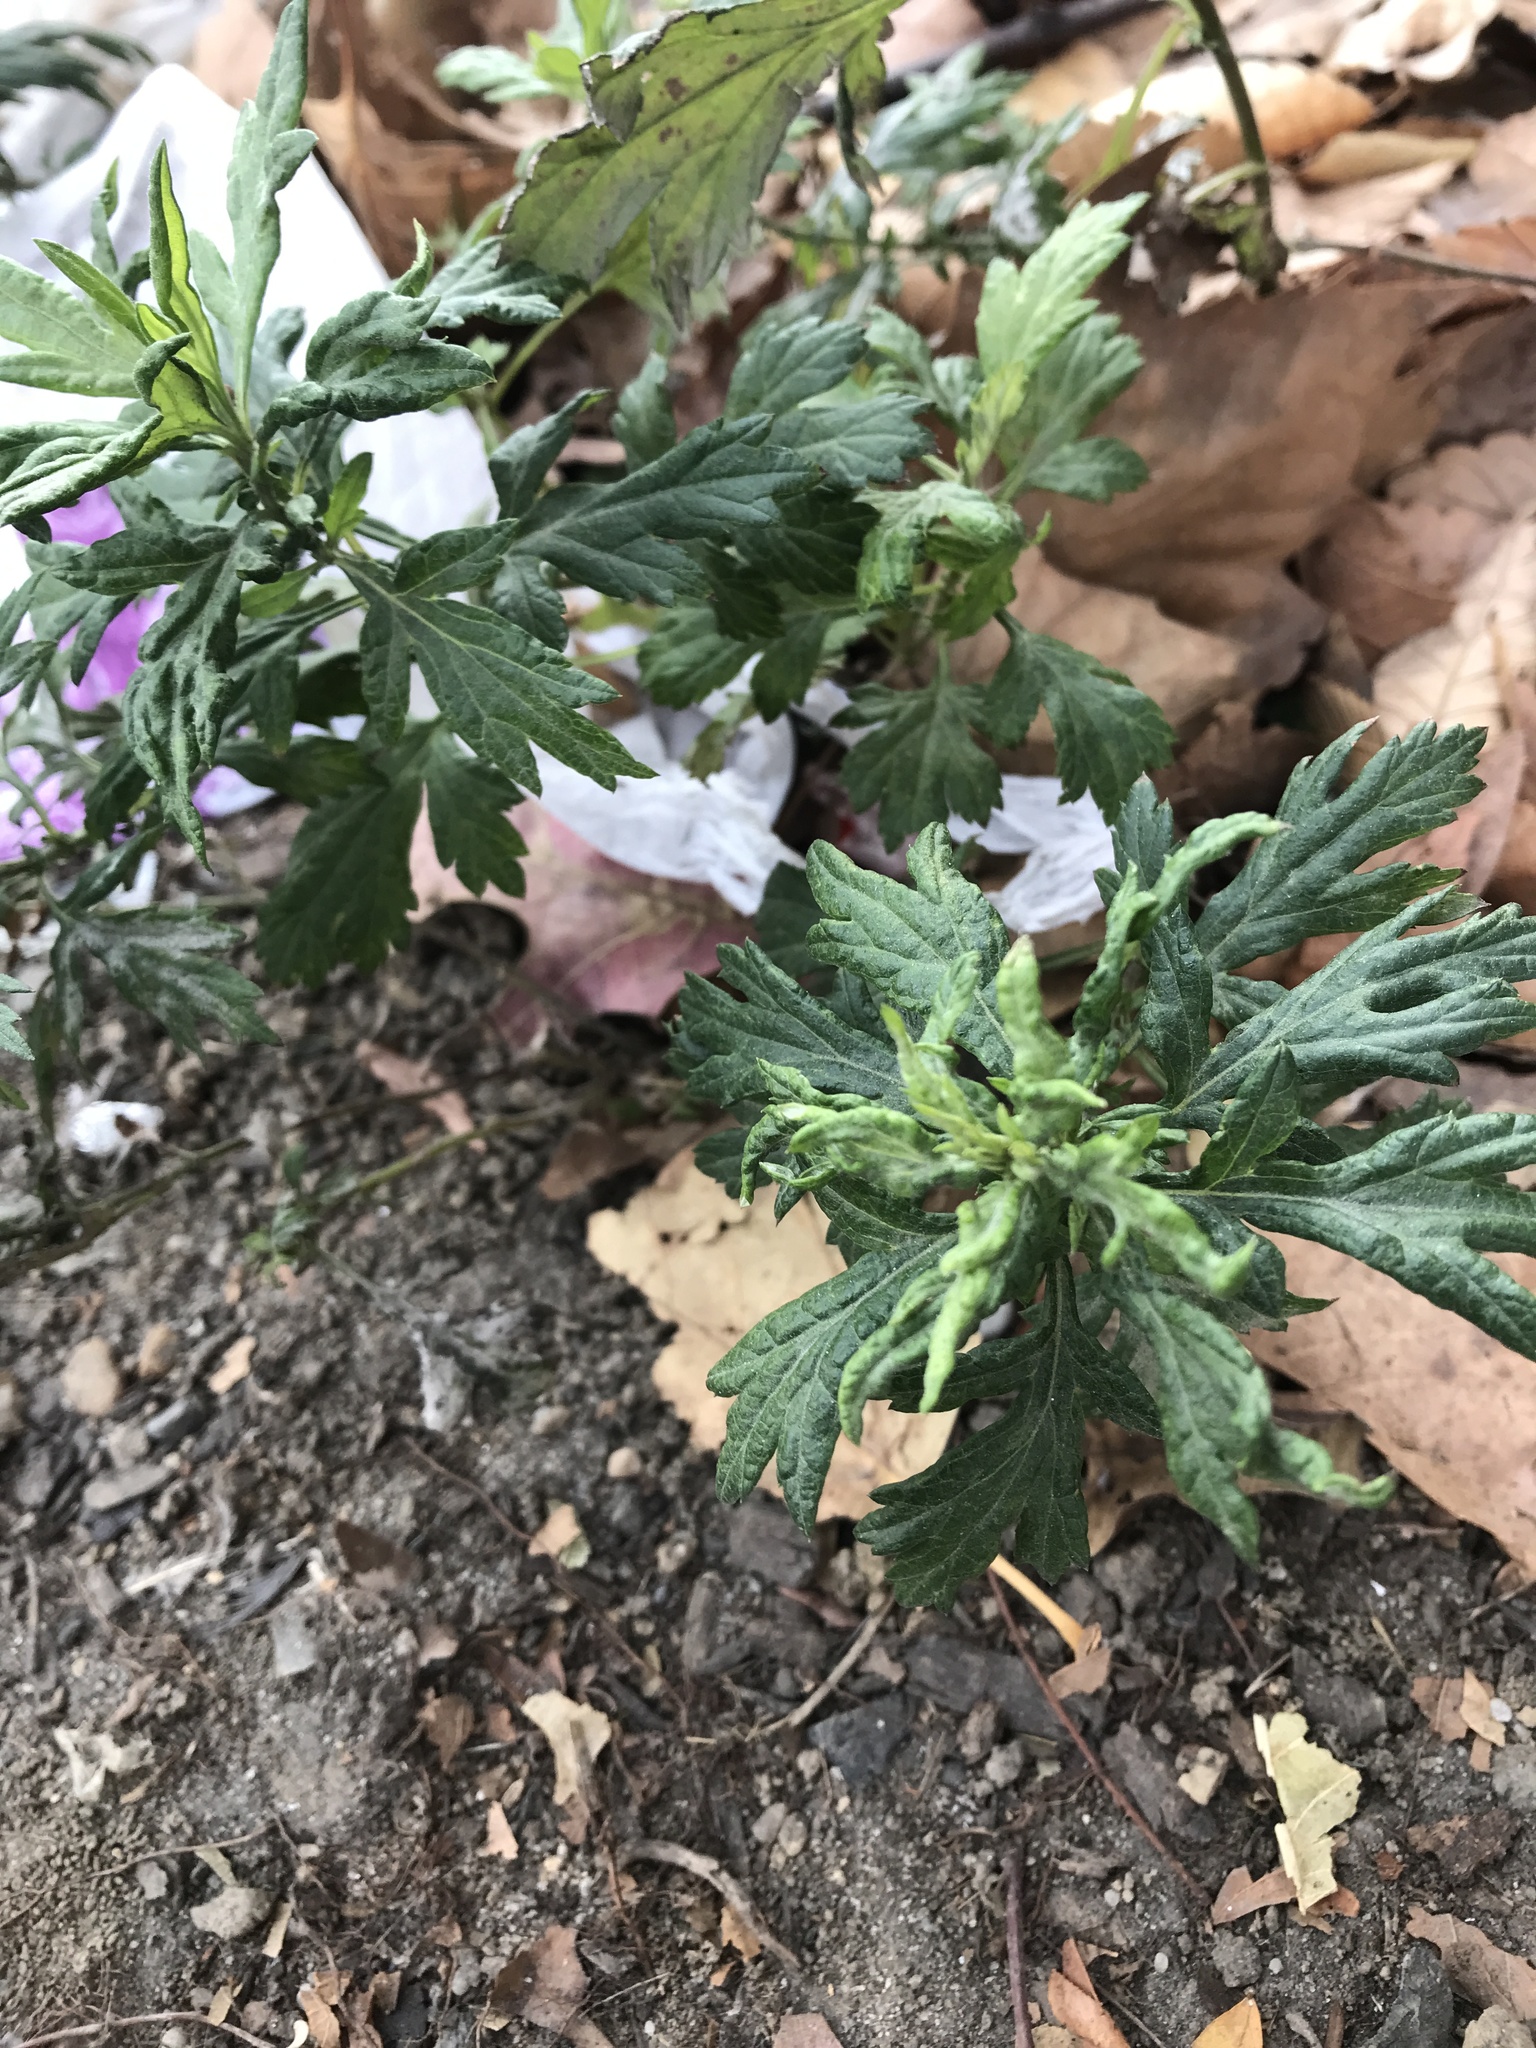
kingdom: Plantae
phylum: Tracheophyta
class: Magnoliopsida
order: Asterales
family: Asteraceae
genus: Artemisia
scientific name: Artemisia vulgaris
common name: Mugwort
